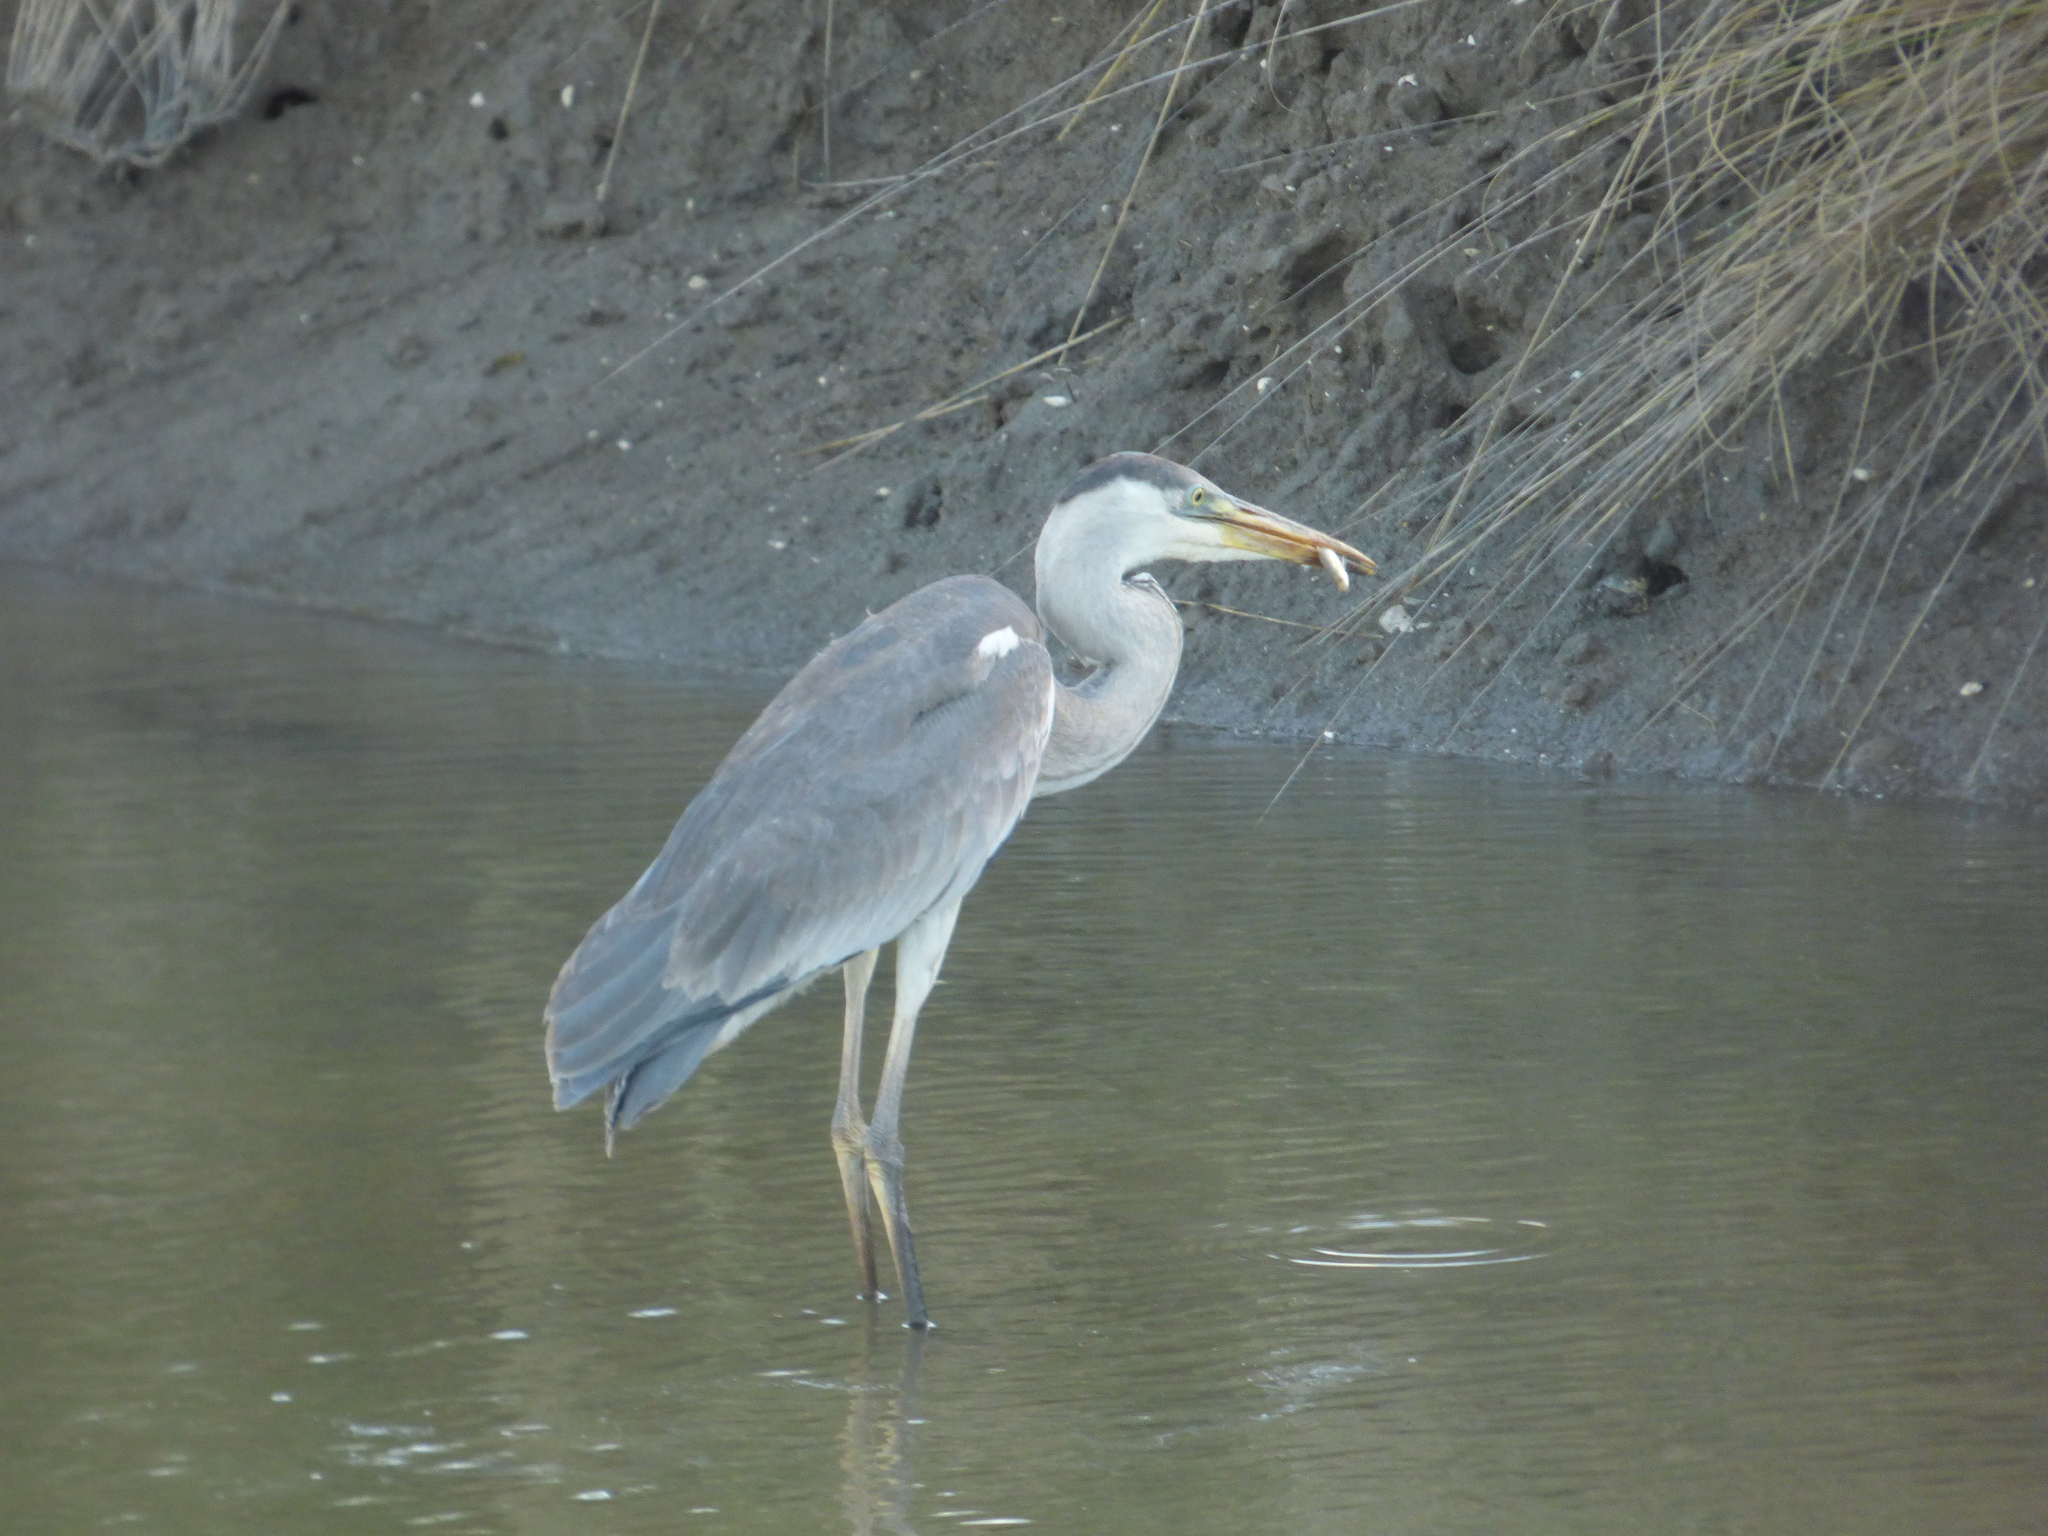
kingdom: Animalia
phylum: Chordata
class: Aves
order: Pelecaniformes
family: Ardeidae
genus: Ardea
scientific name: Ardea cocoi
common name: Cocoi heron
